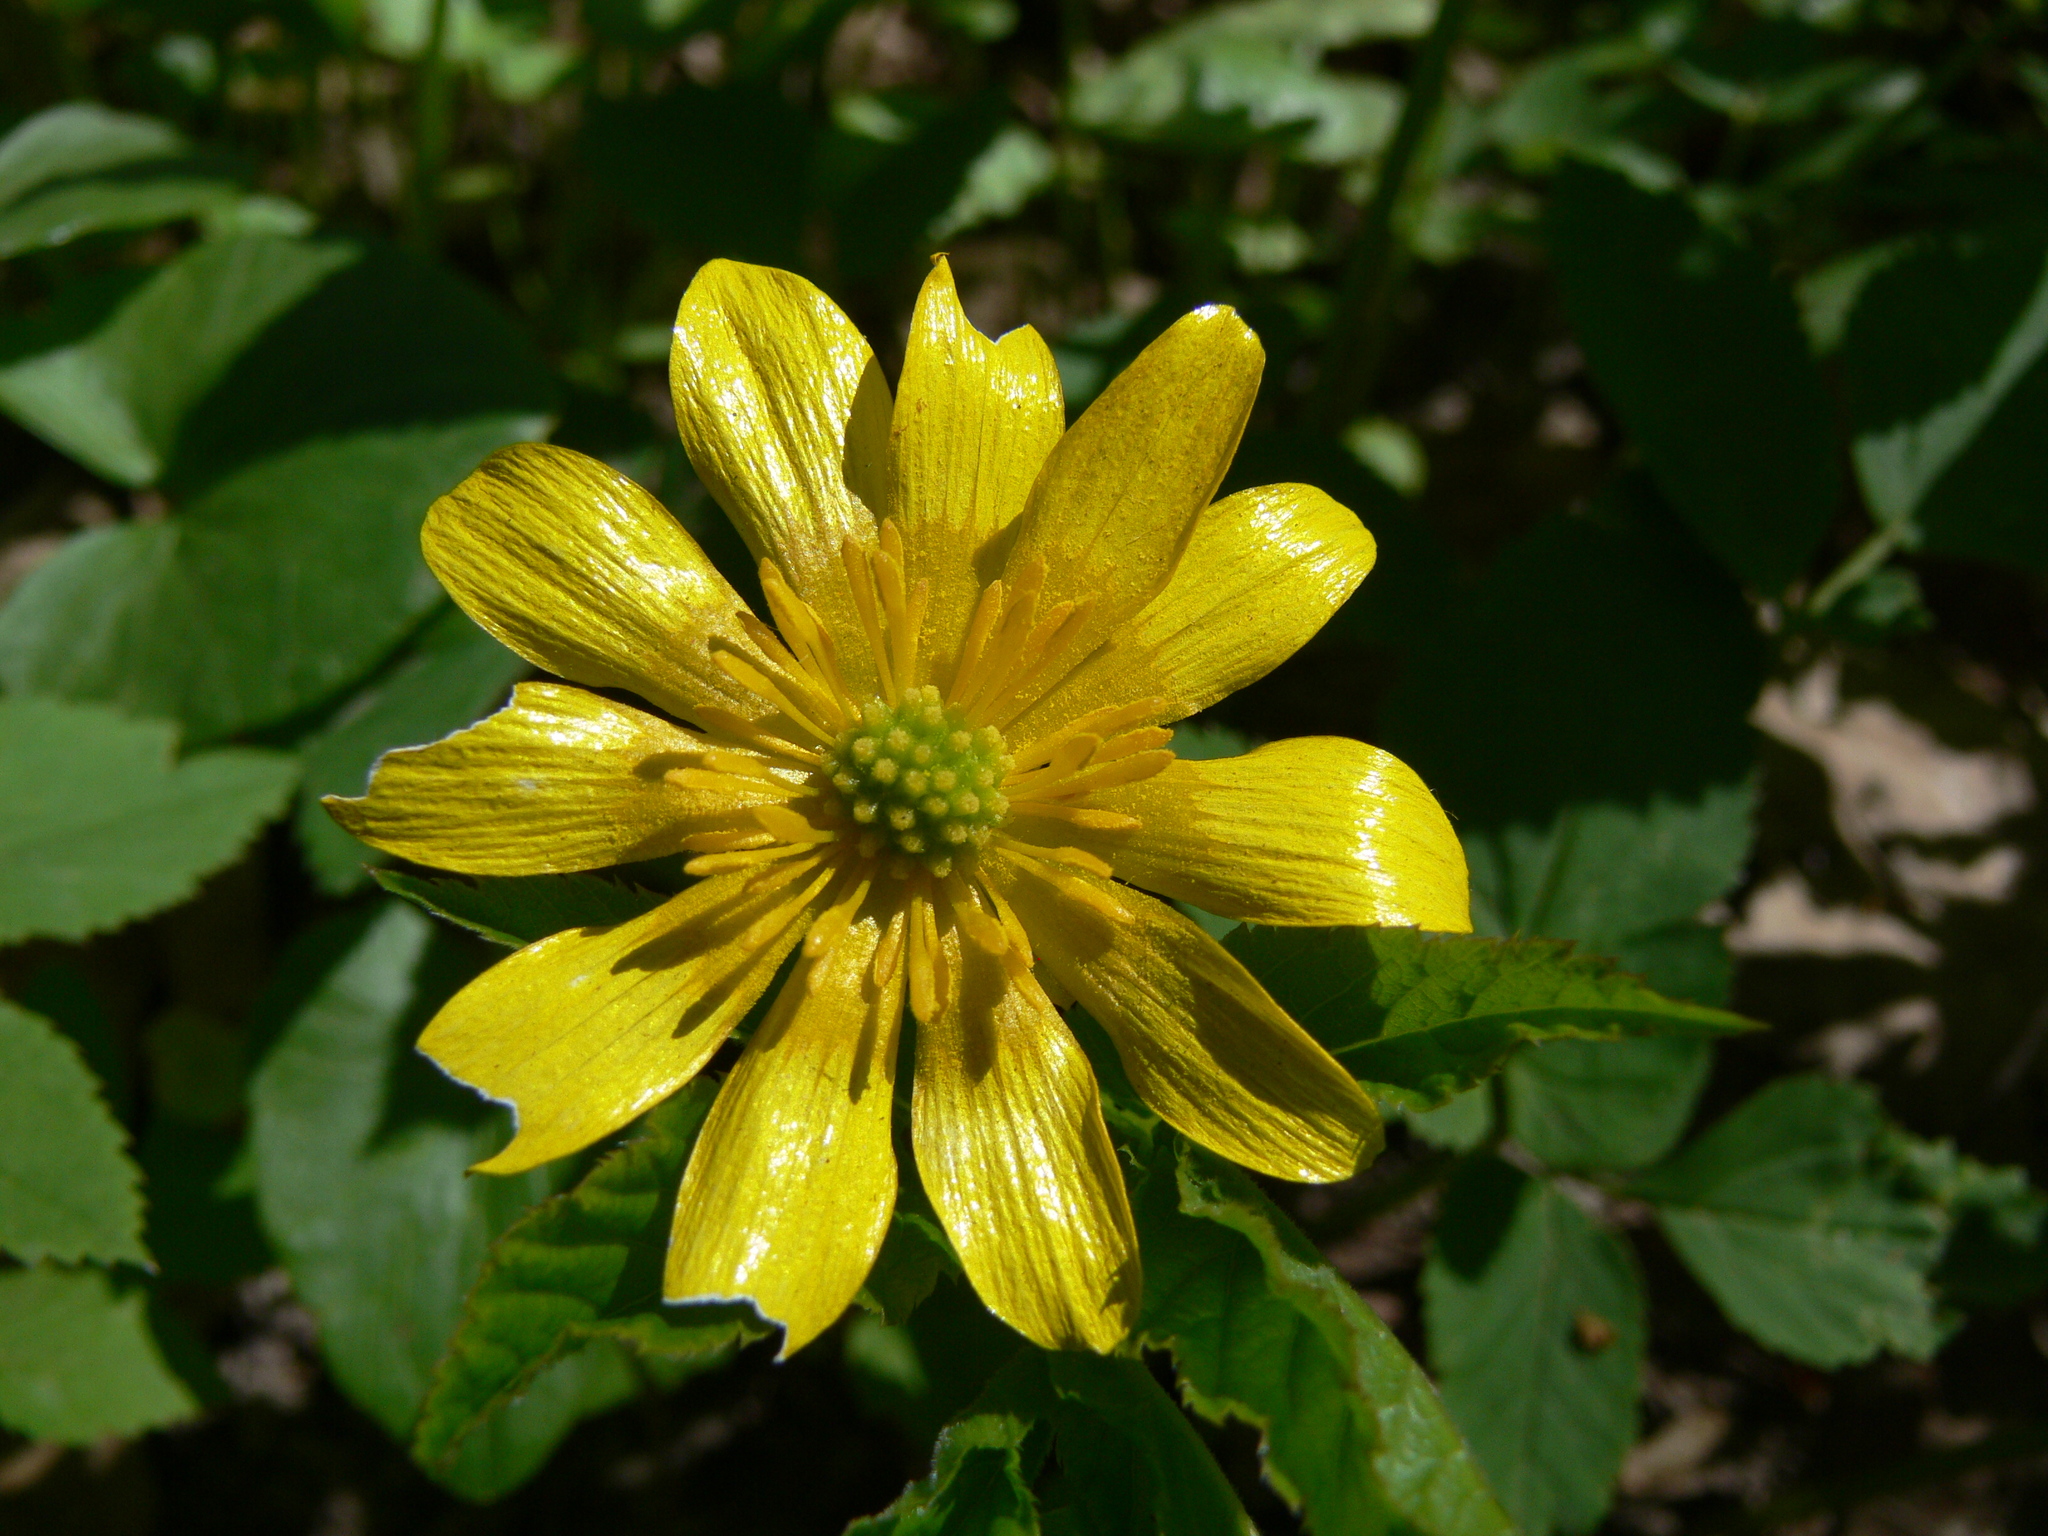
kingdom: Plantae
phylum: Tracheophyta
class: Magnoliopsida
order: Ranunculales
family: Ranunculaceae
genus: Ficaria
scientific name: Ficaria verna
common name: Lesser celandine
